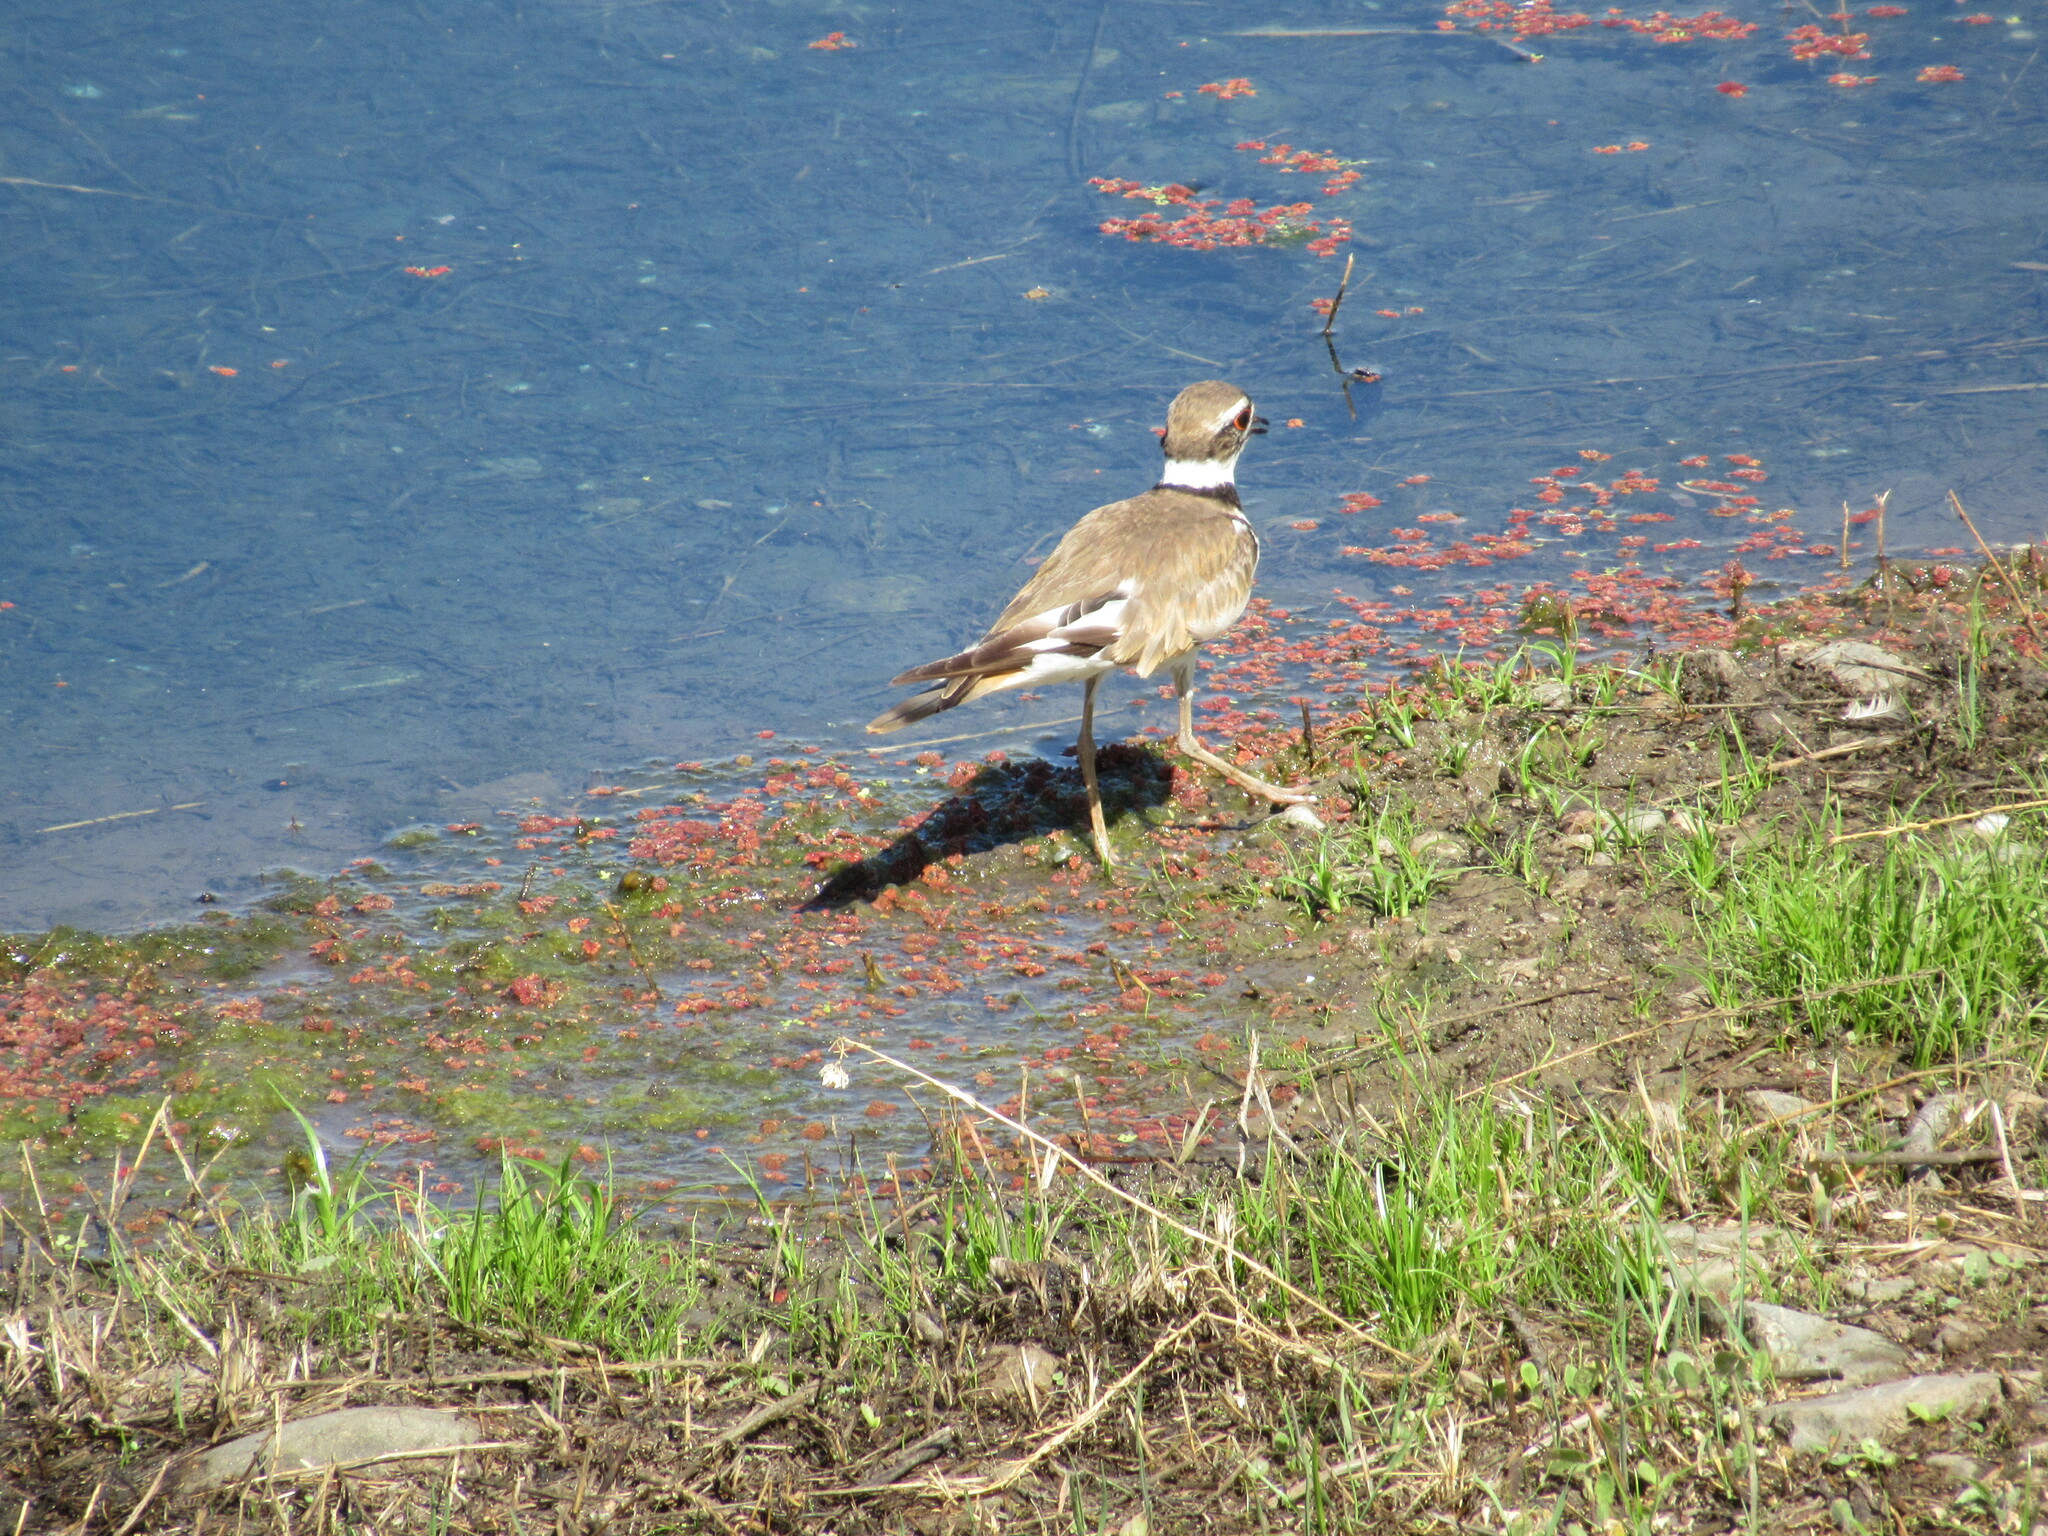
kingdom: Animalia
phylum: Chordata
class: Aves
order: Charadriiformes
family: Charadriidae
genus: Charadrius
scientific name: Charadrius vociferus
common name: Killdeer
